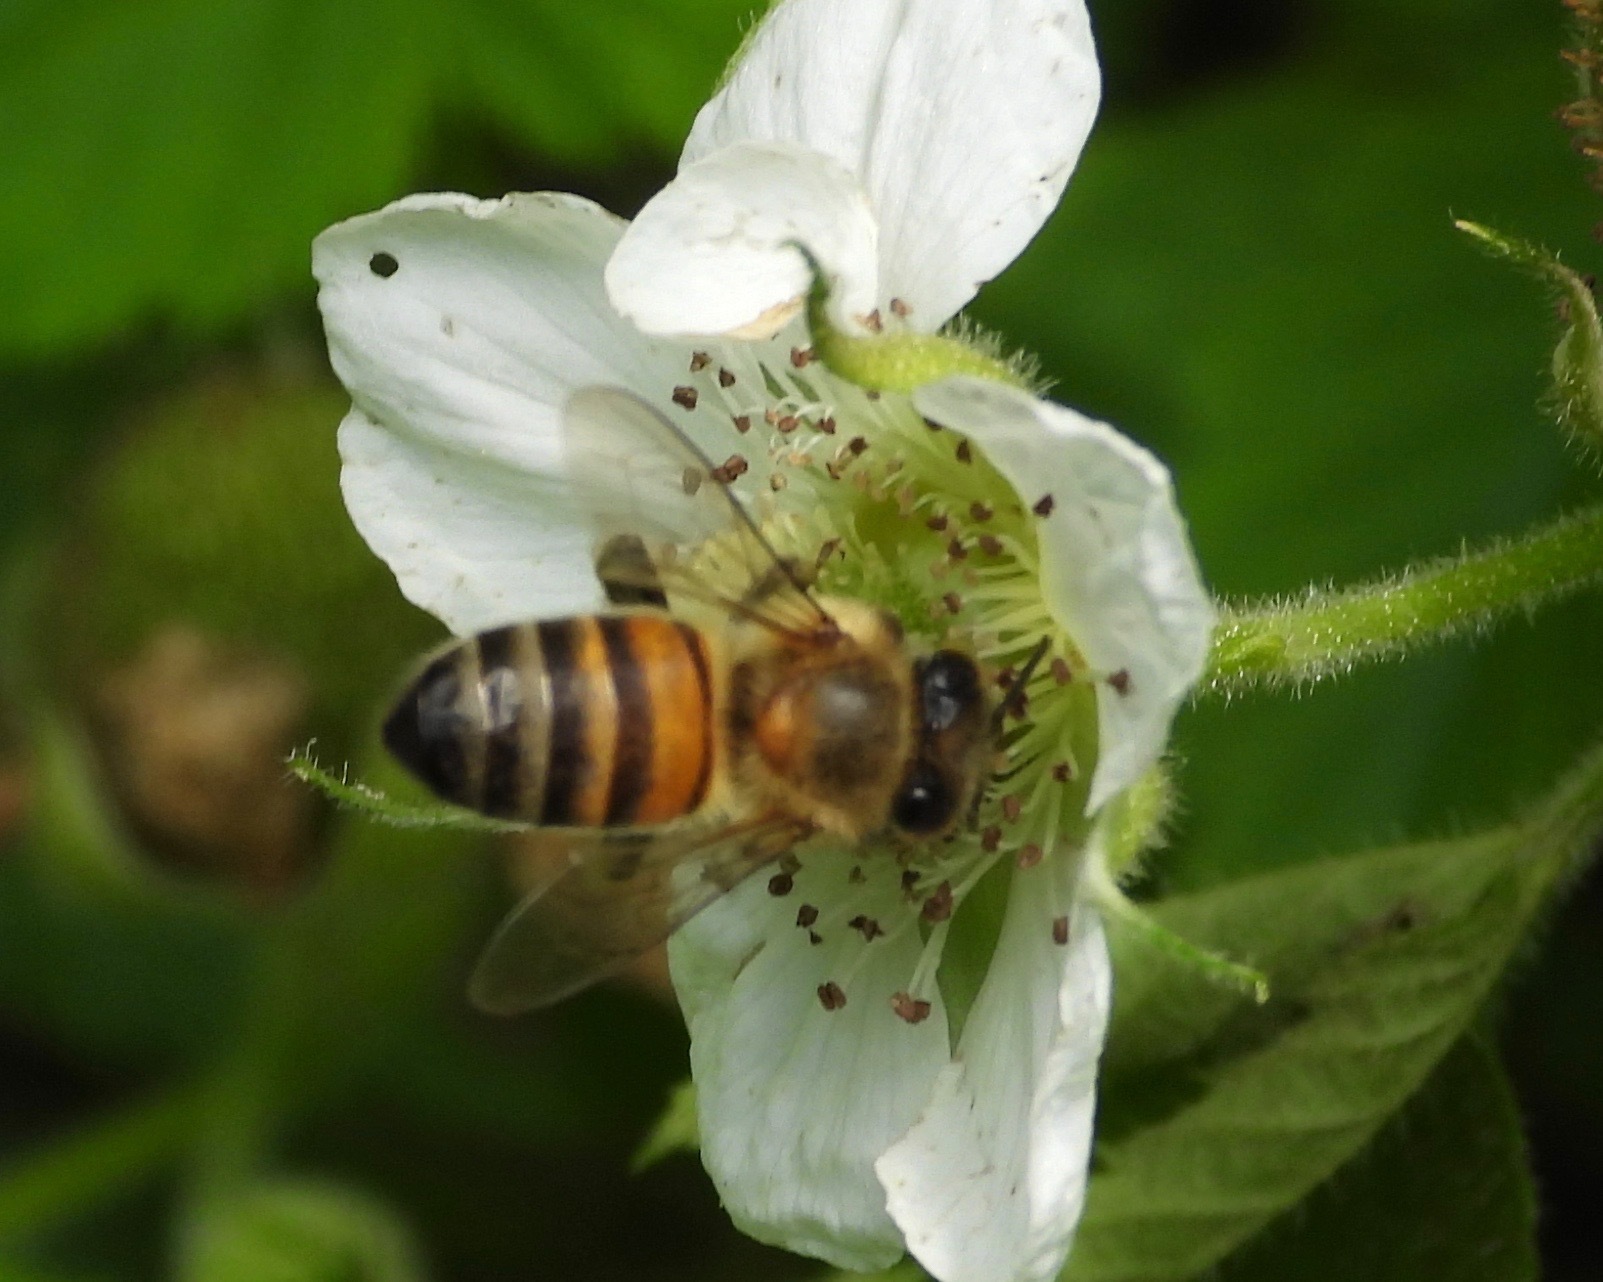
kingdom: Animalia
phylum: Arthropoda
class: Insecta
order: Hymenoptera
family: Apidae
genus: Apis
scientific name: Apis mellifera
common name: Honey bee
